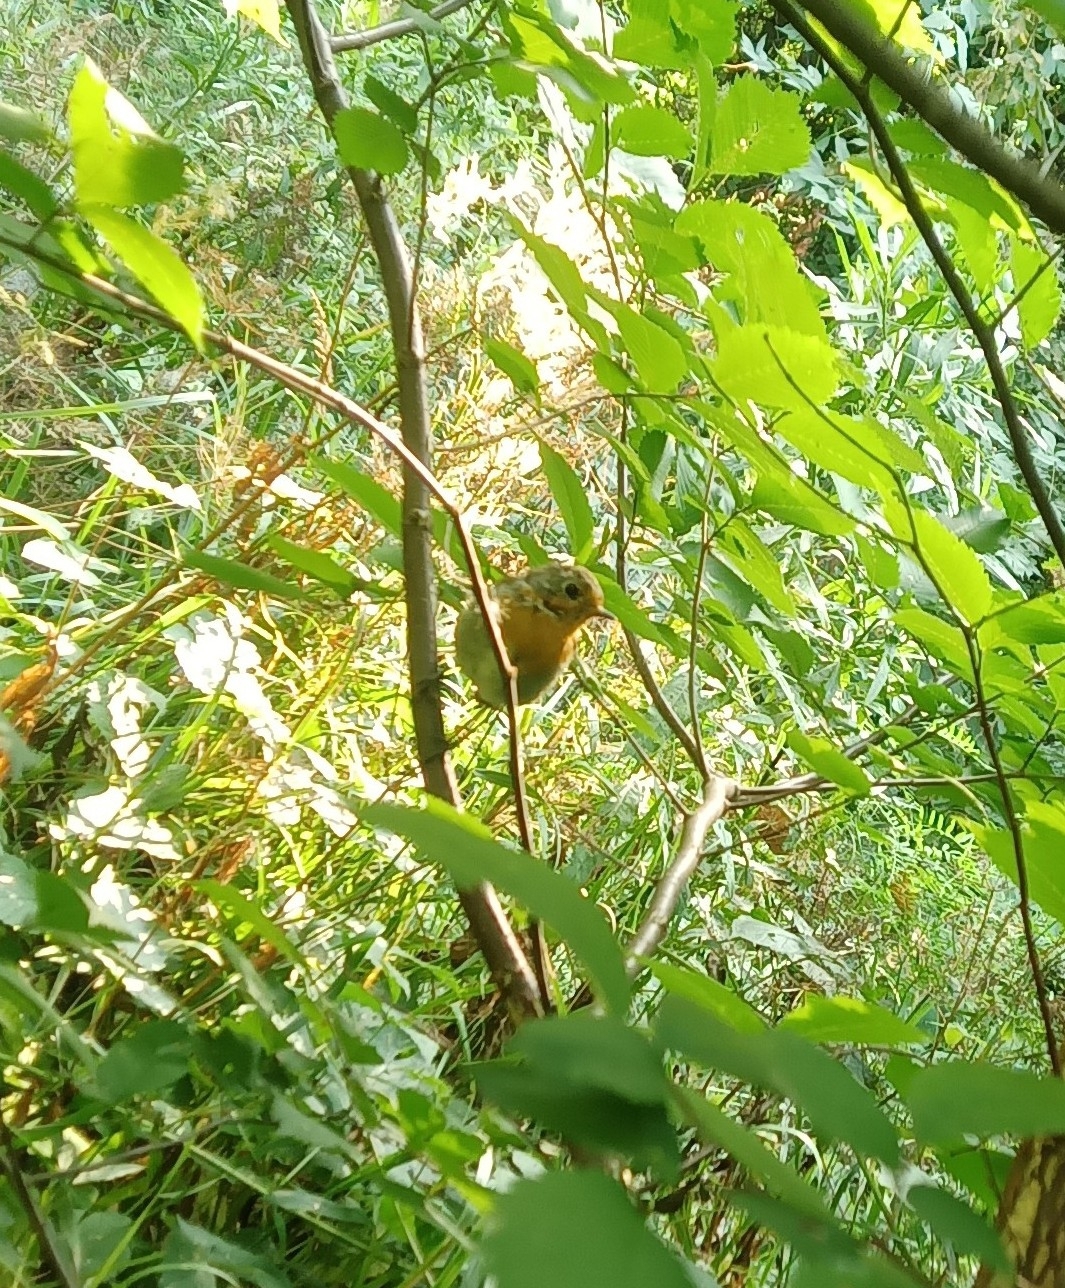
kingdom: Animalia
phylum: Chordata
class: Aves
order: Passeriformes
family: Muscicapidae
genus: Erithacus
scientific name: Erithacus rubecula
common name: European robin
